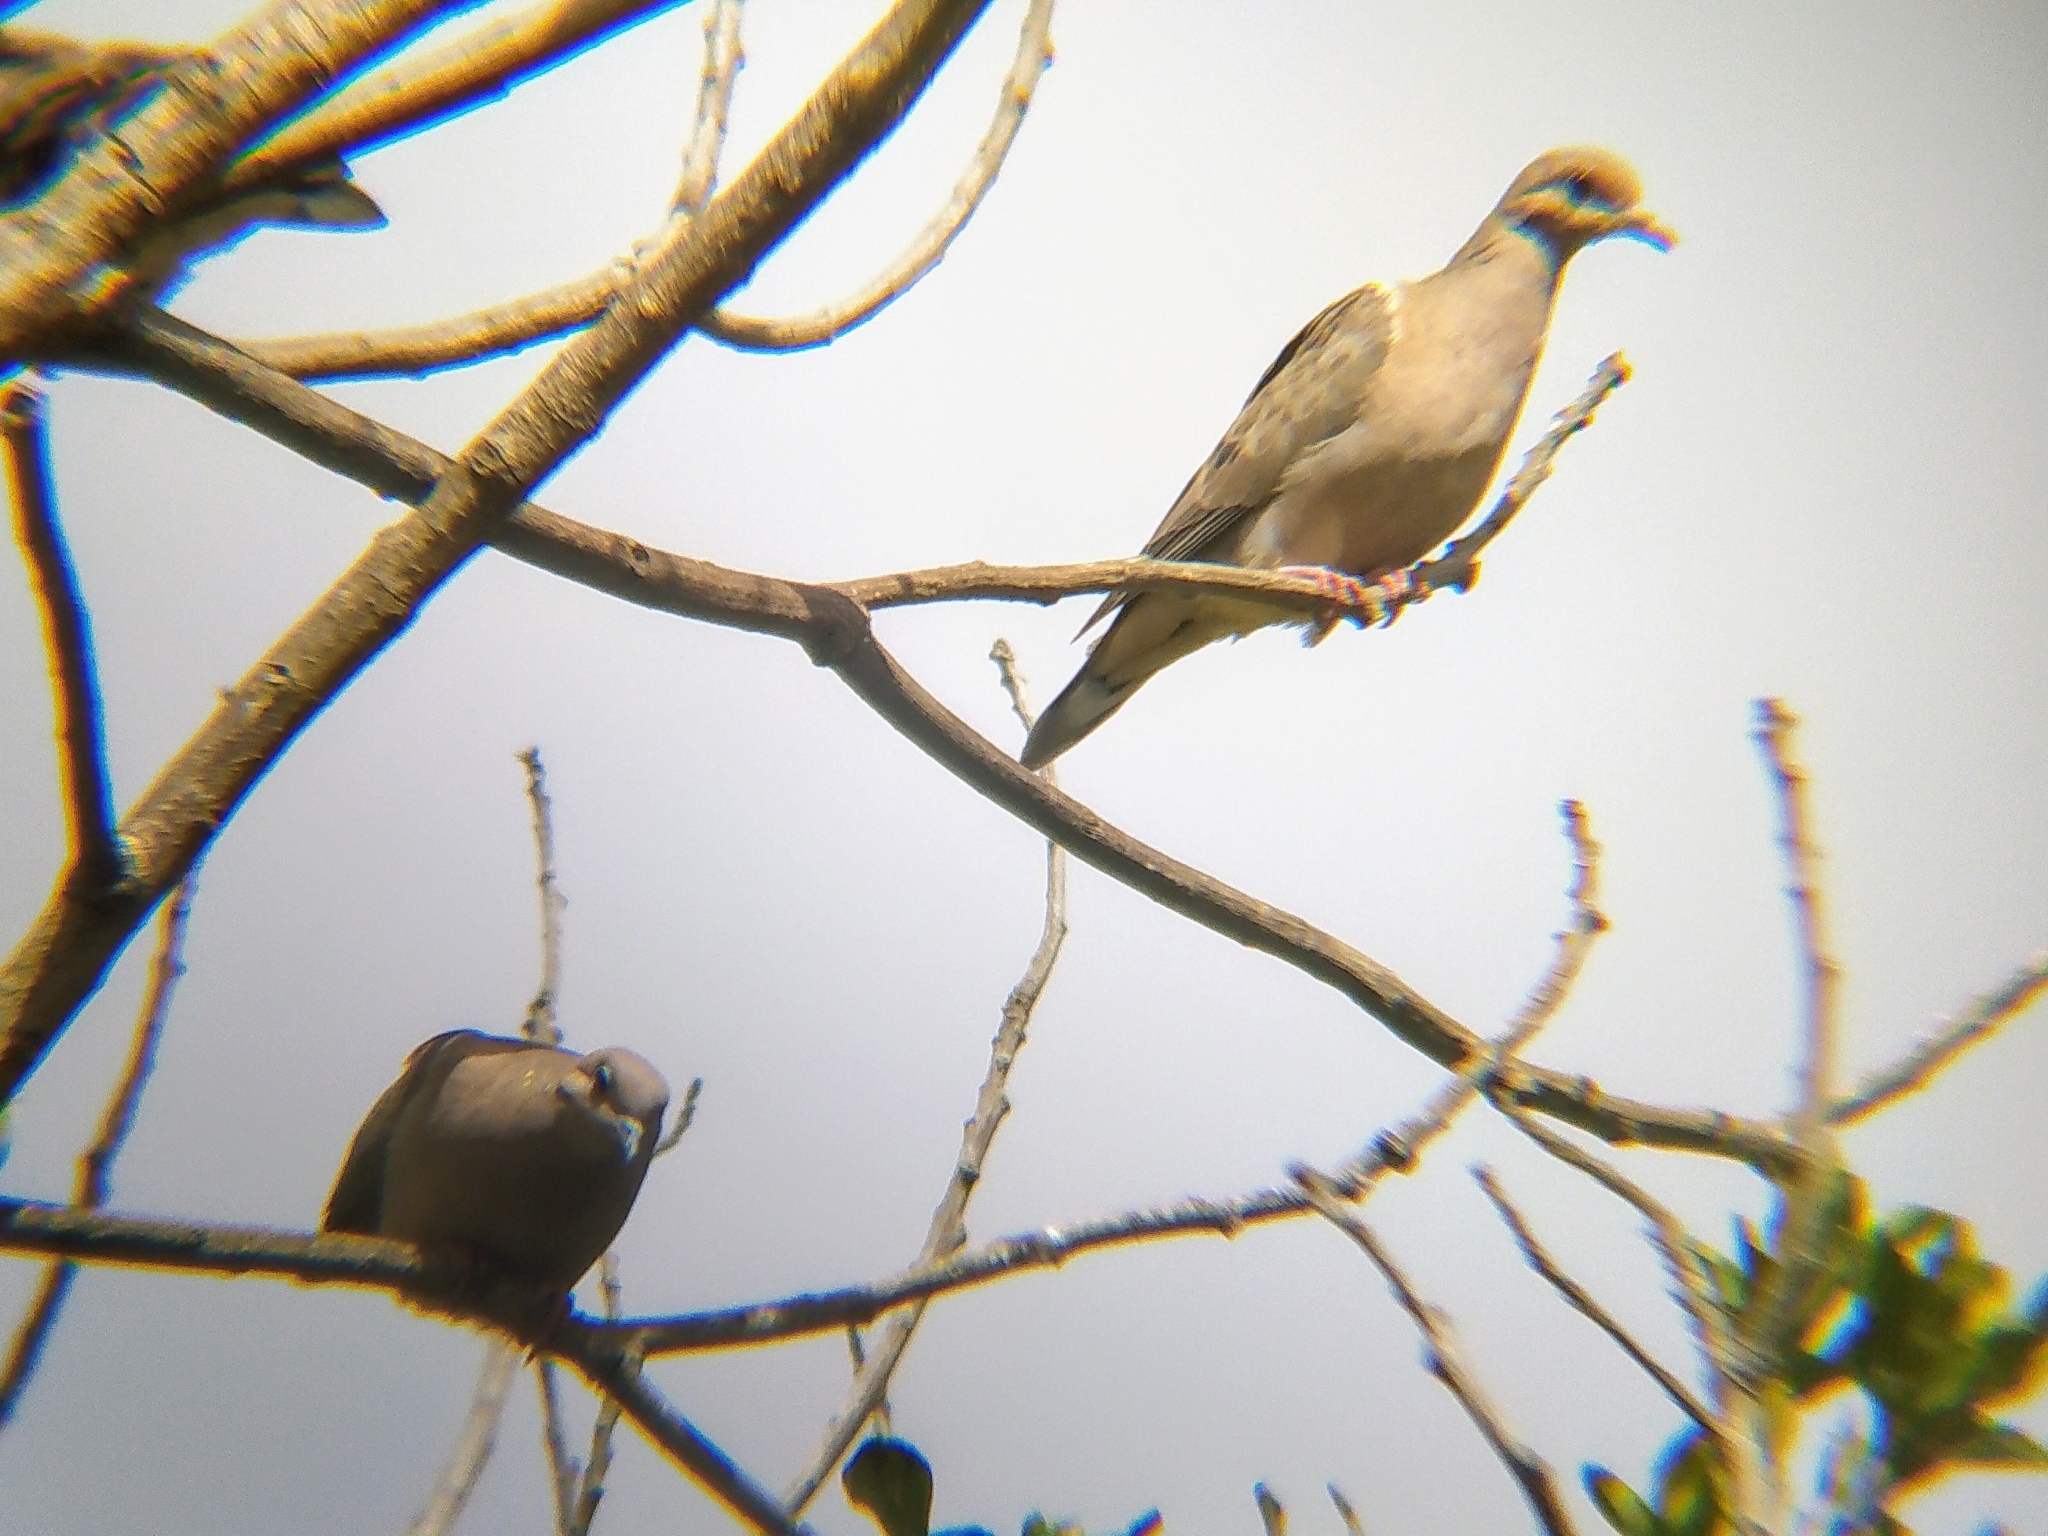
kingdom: Animalia
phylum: Chordata
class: Aves
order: Columbiformes
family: Columbidae
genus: Zenaida
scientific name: Zenaida auriculata
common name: Eared dove
